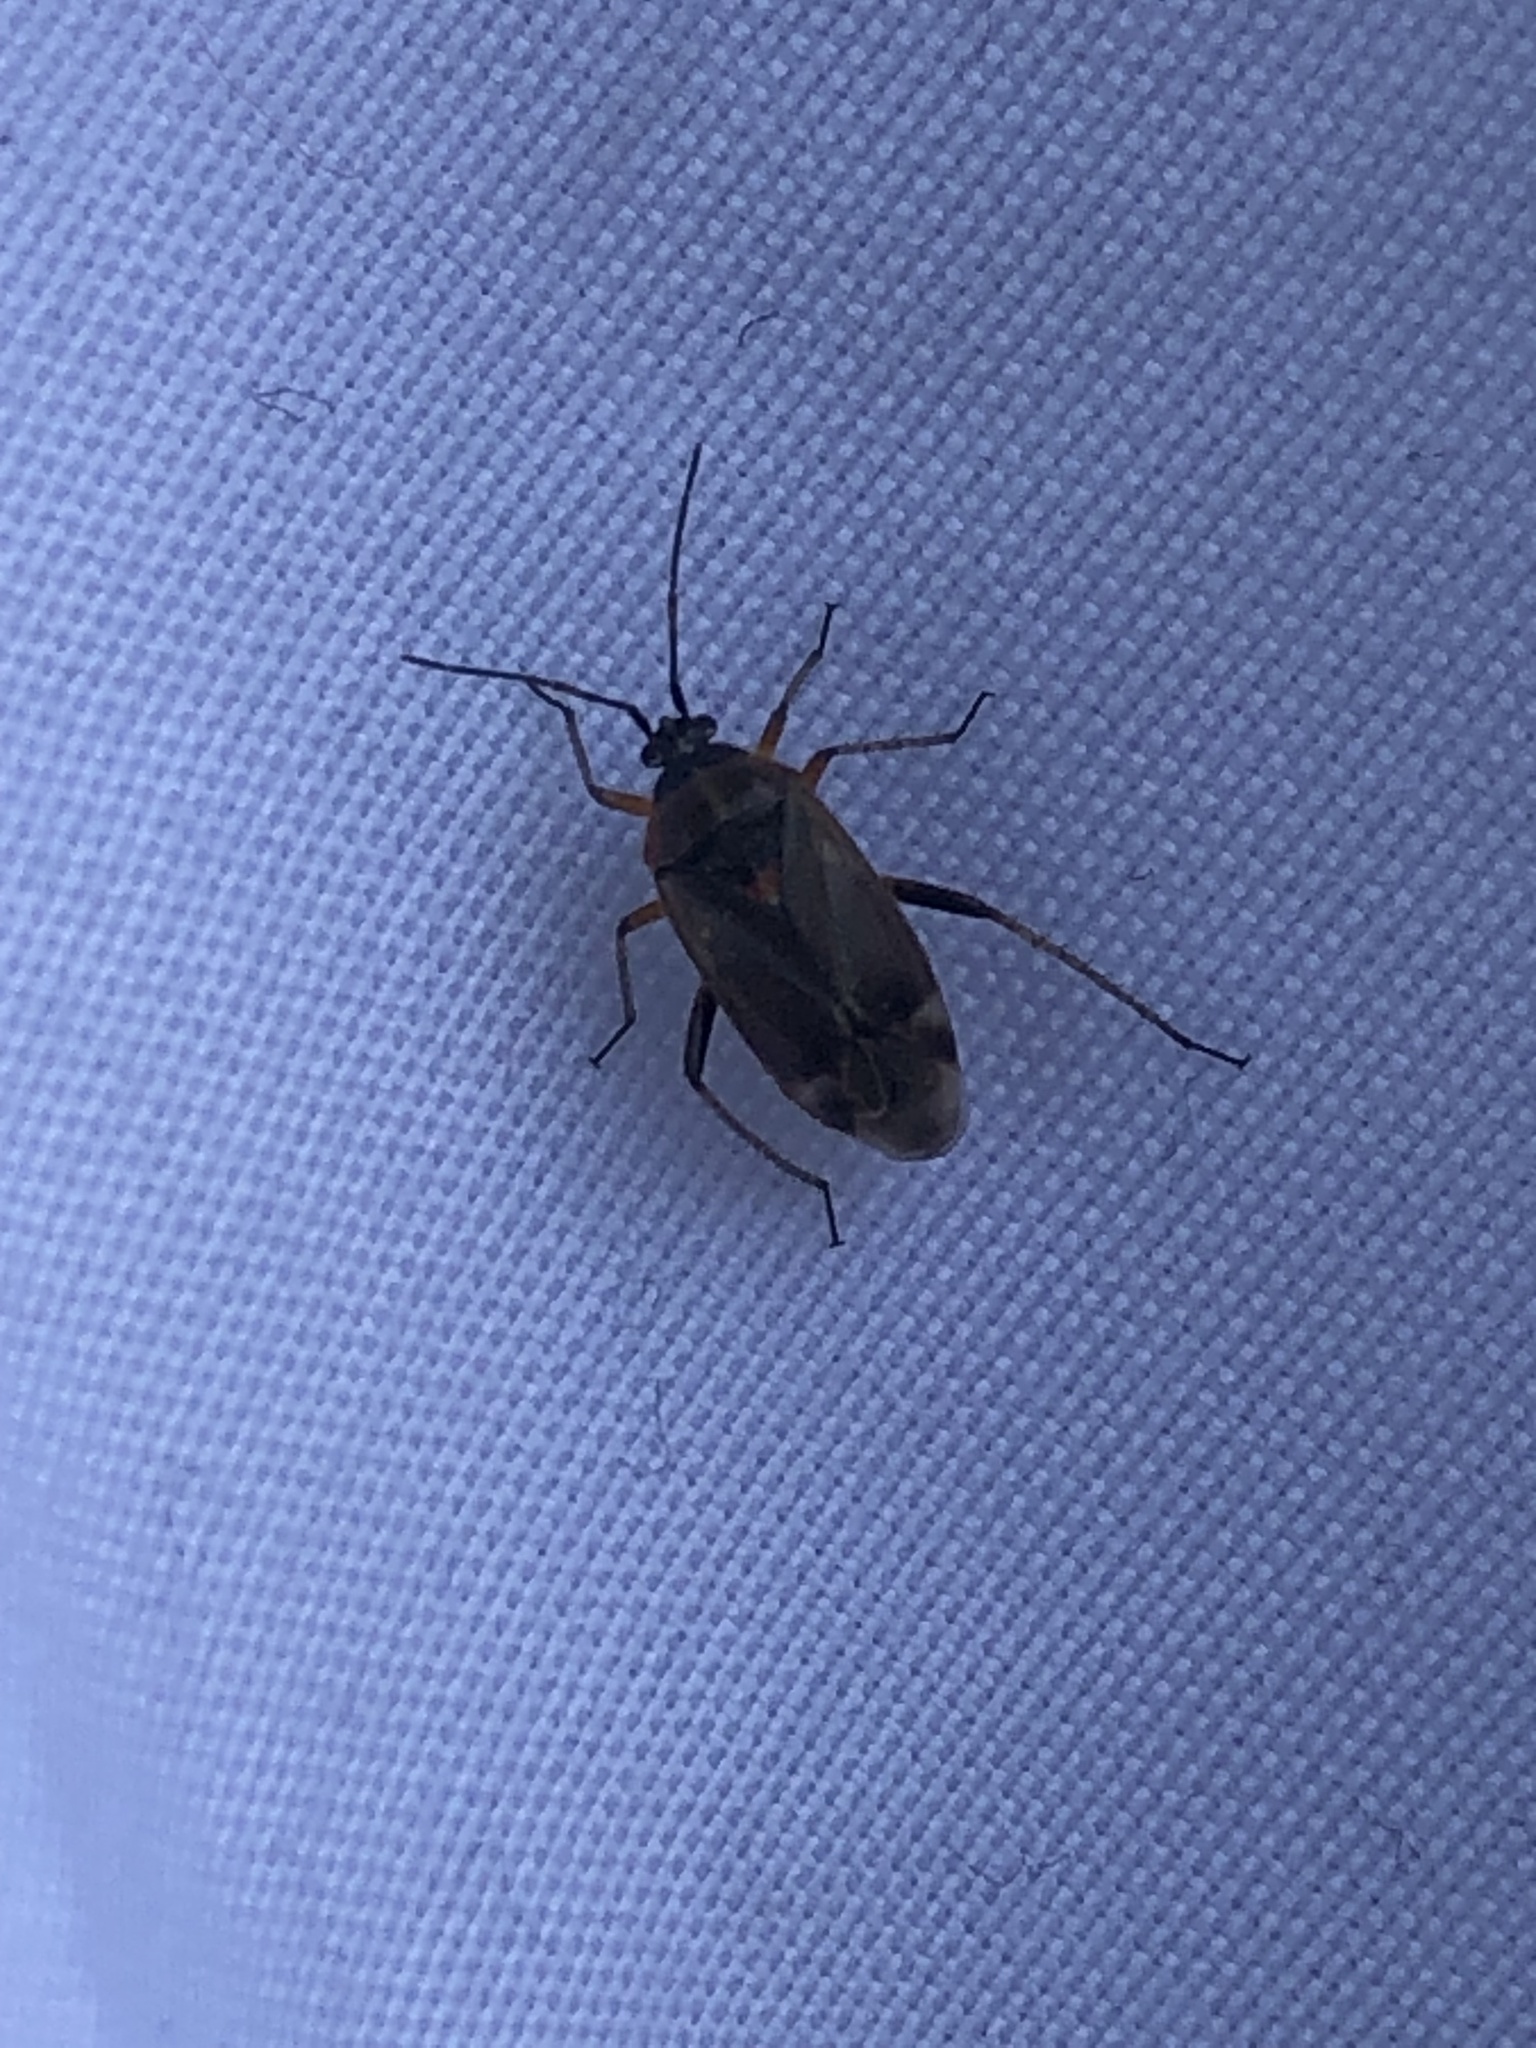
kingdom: Animalia
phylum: Arthropoda
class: Insecta
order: Hemiptera
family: Miridae
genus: Harpocera
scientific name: Harpocera thoracica
